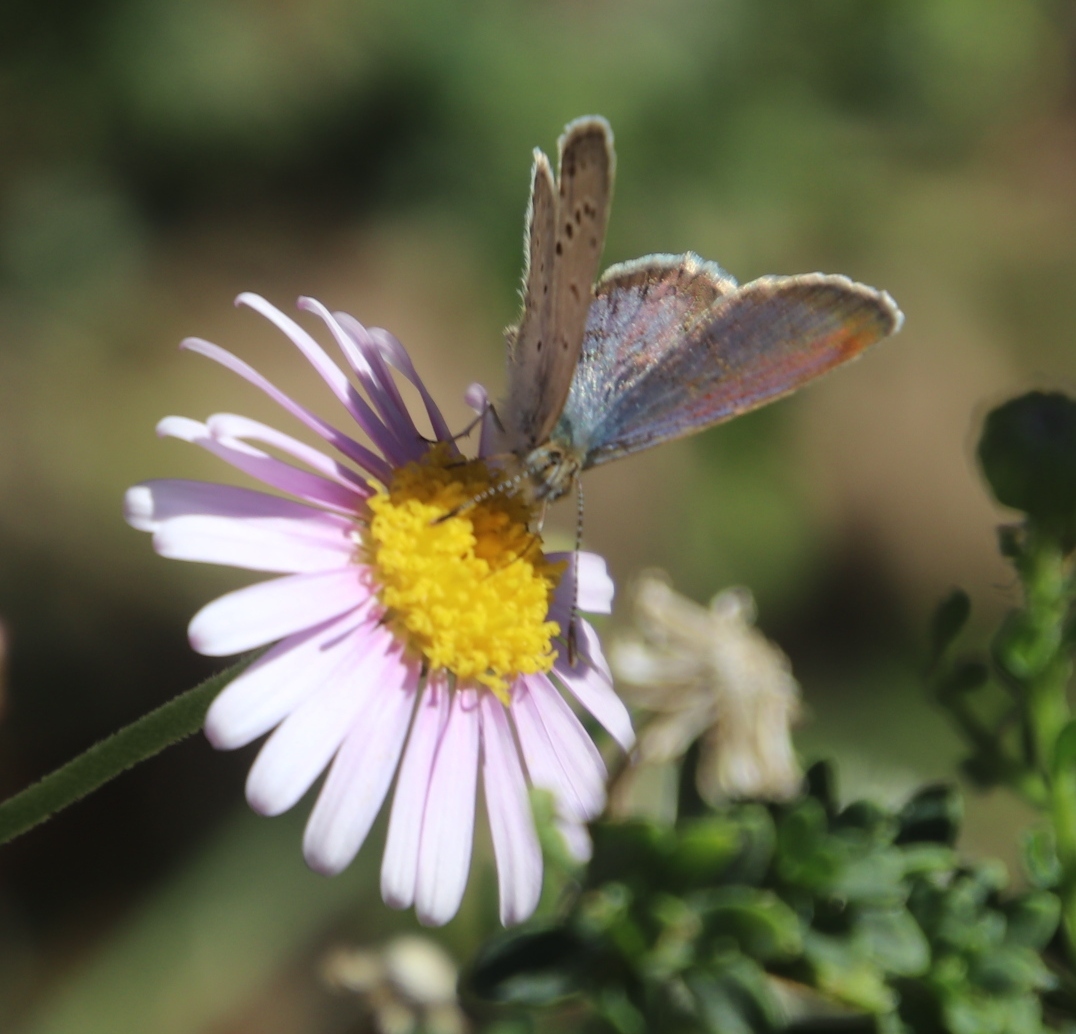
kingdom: Animalia
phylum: Arthropoda
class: Insecta
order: Lepidoptera
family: Lycaenidae
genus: Zizeeria
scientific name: Zizeeria knysna
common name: African grass blue
